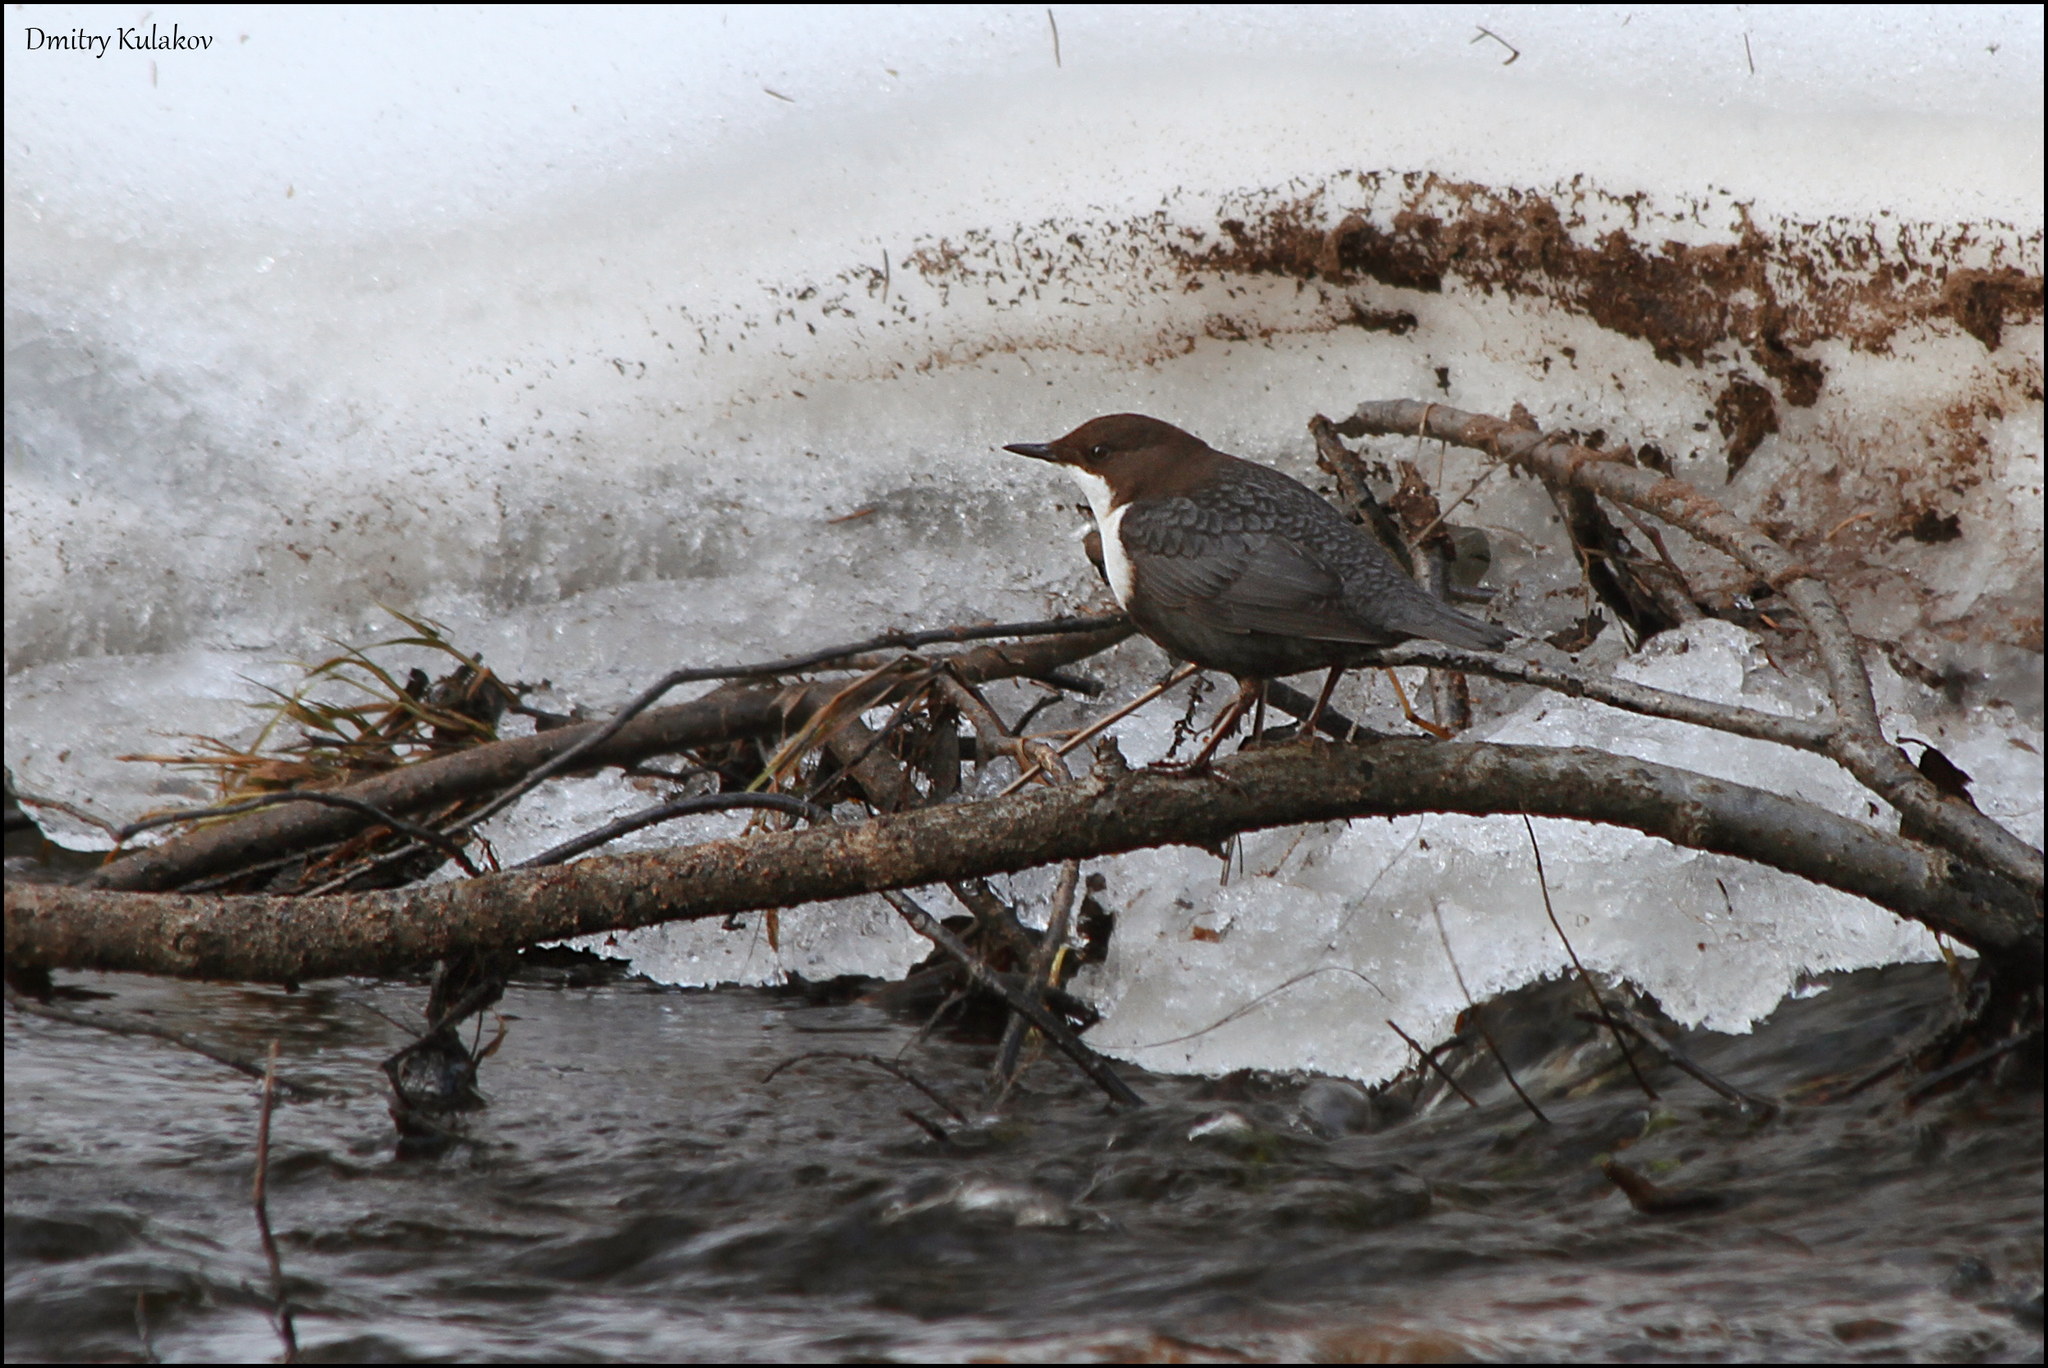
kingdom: Animalia
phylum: Chordata
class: Aves
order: Passeriformes
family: Cinclidae
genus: Cinclus
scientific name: Cinclus cinclus
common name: White-throated dipper
